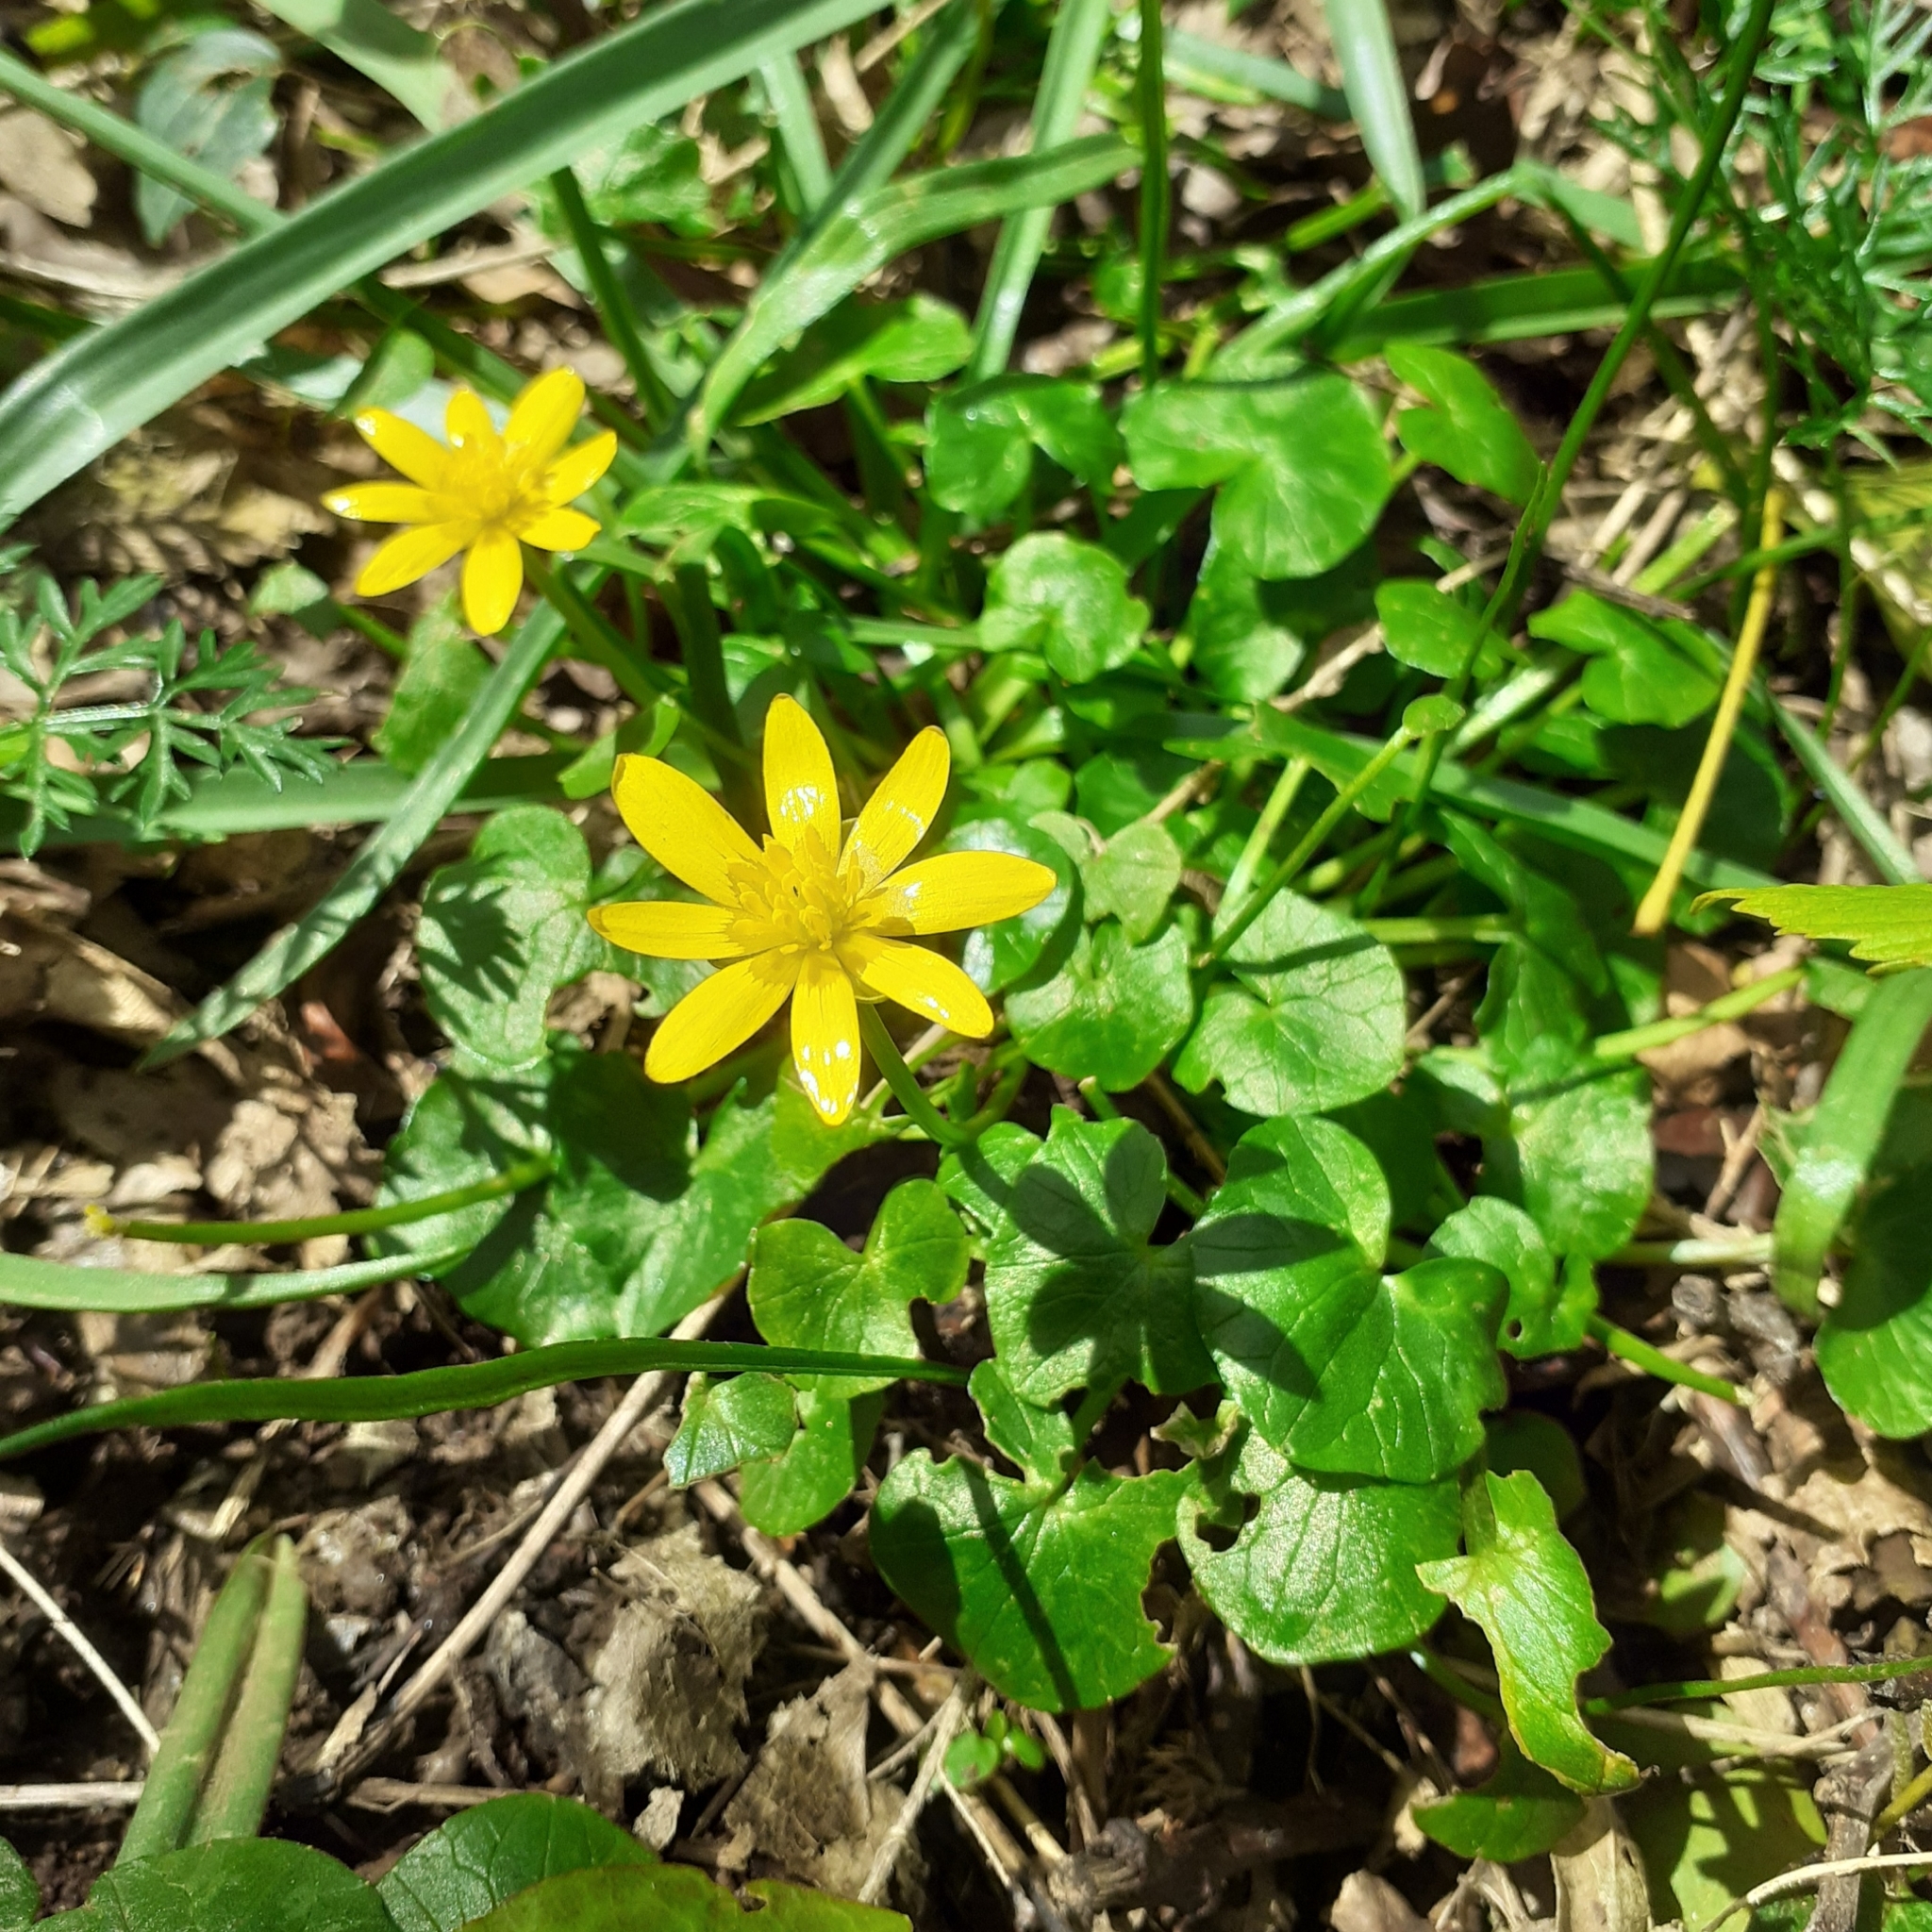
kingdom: Plantae
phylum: Tracheophyta
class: Magnoliopsida
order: Ranunculales
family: Ranunculaceae
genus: Ficaria
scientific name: Ficaria verna
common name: Lesser celandine
